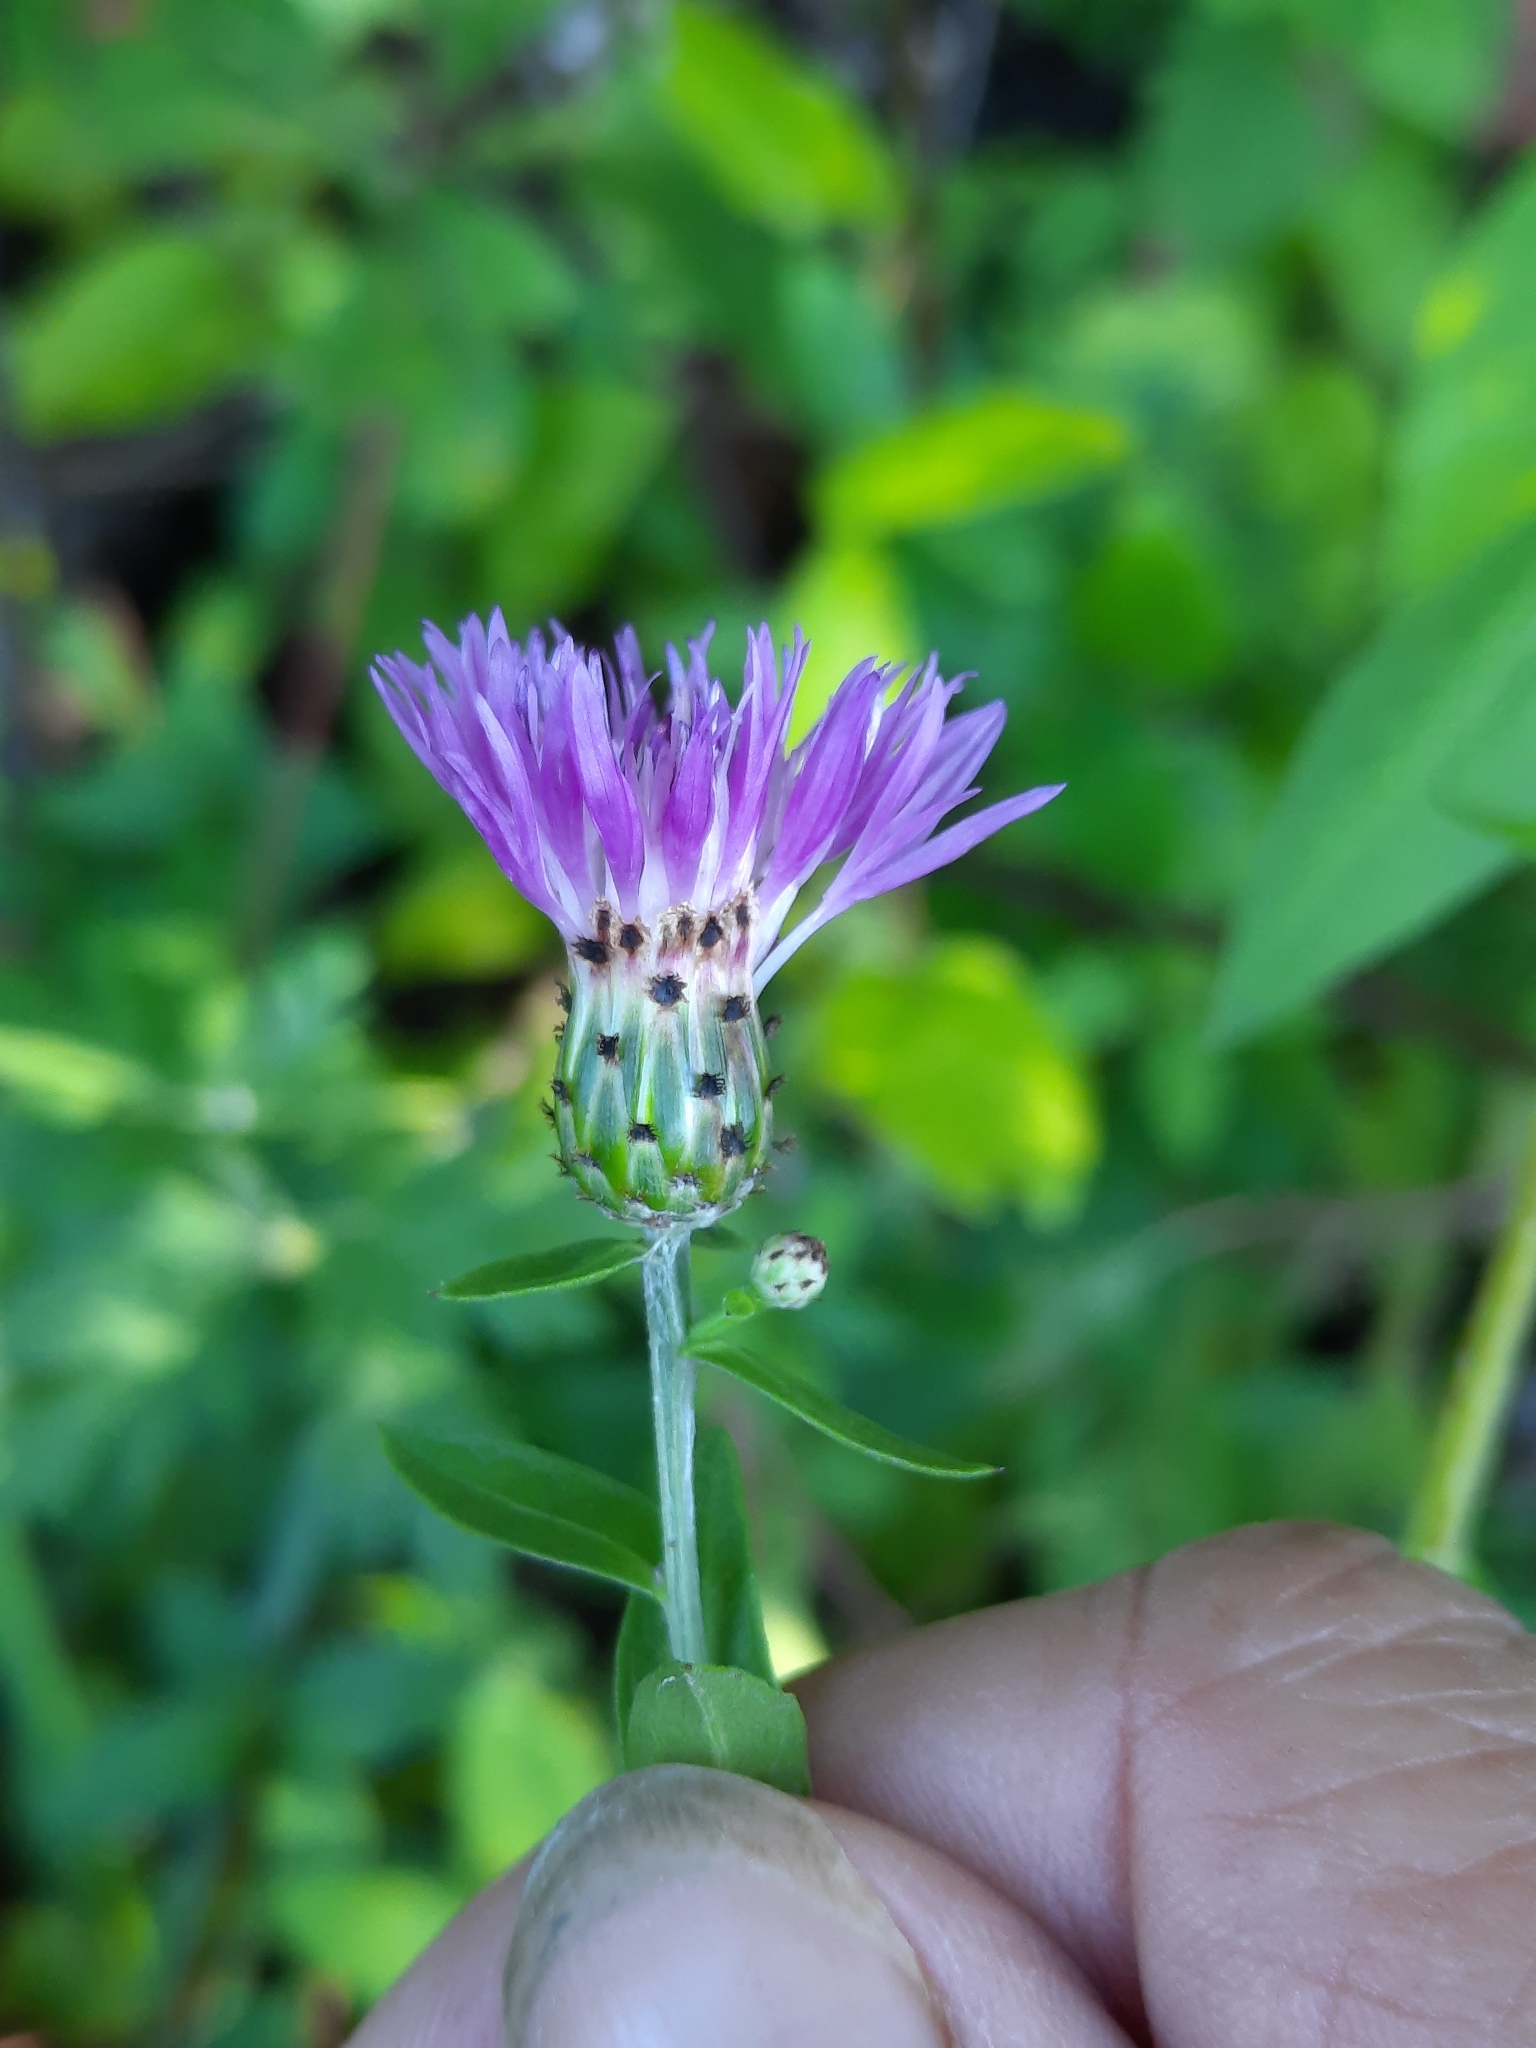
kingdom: Plantae
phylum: Tracheophyta
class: Magnoliopsida
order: Asterales
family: Asteraceae
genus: Centaurea
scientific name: Centaurea nigrescens
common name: Tyrol knapweed
